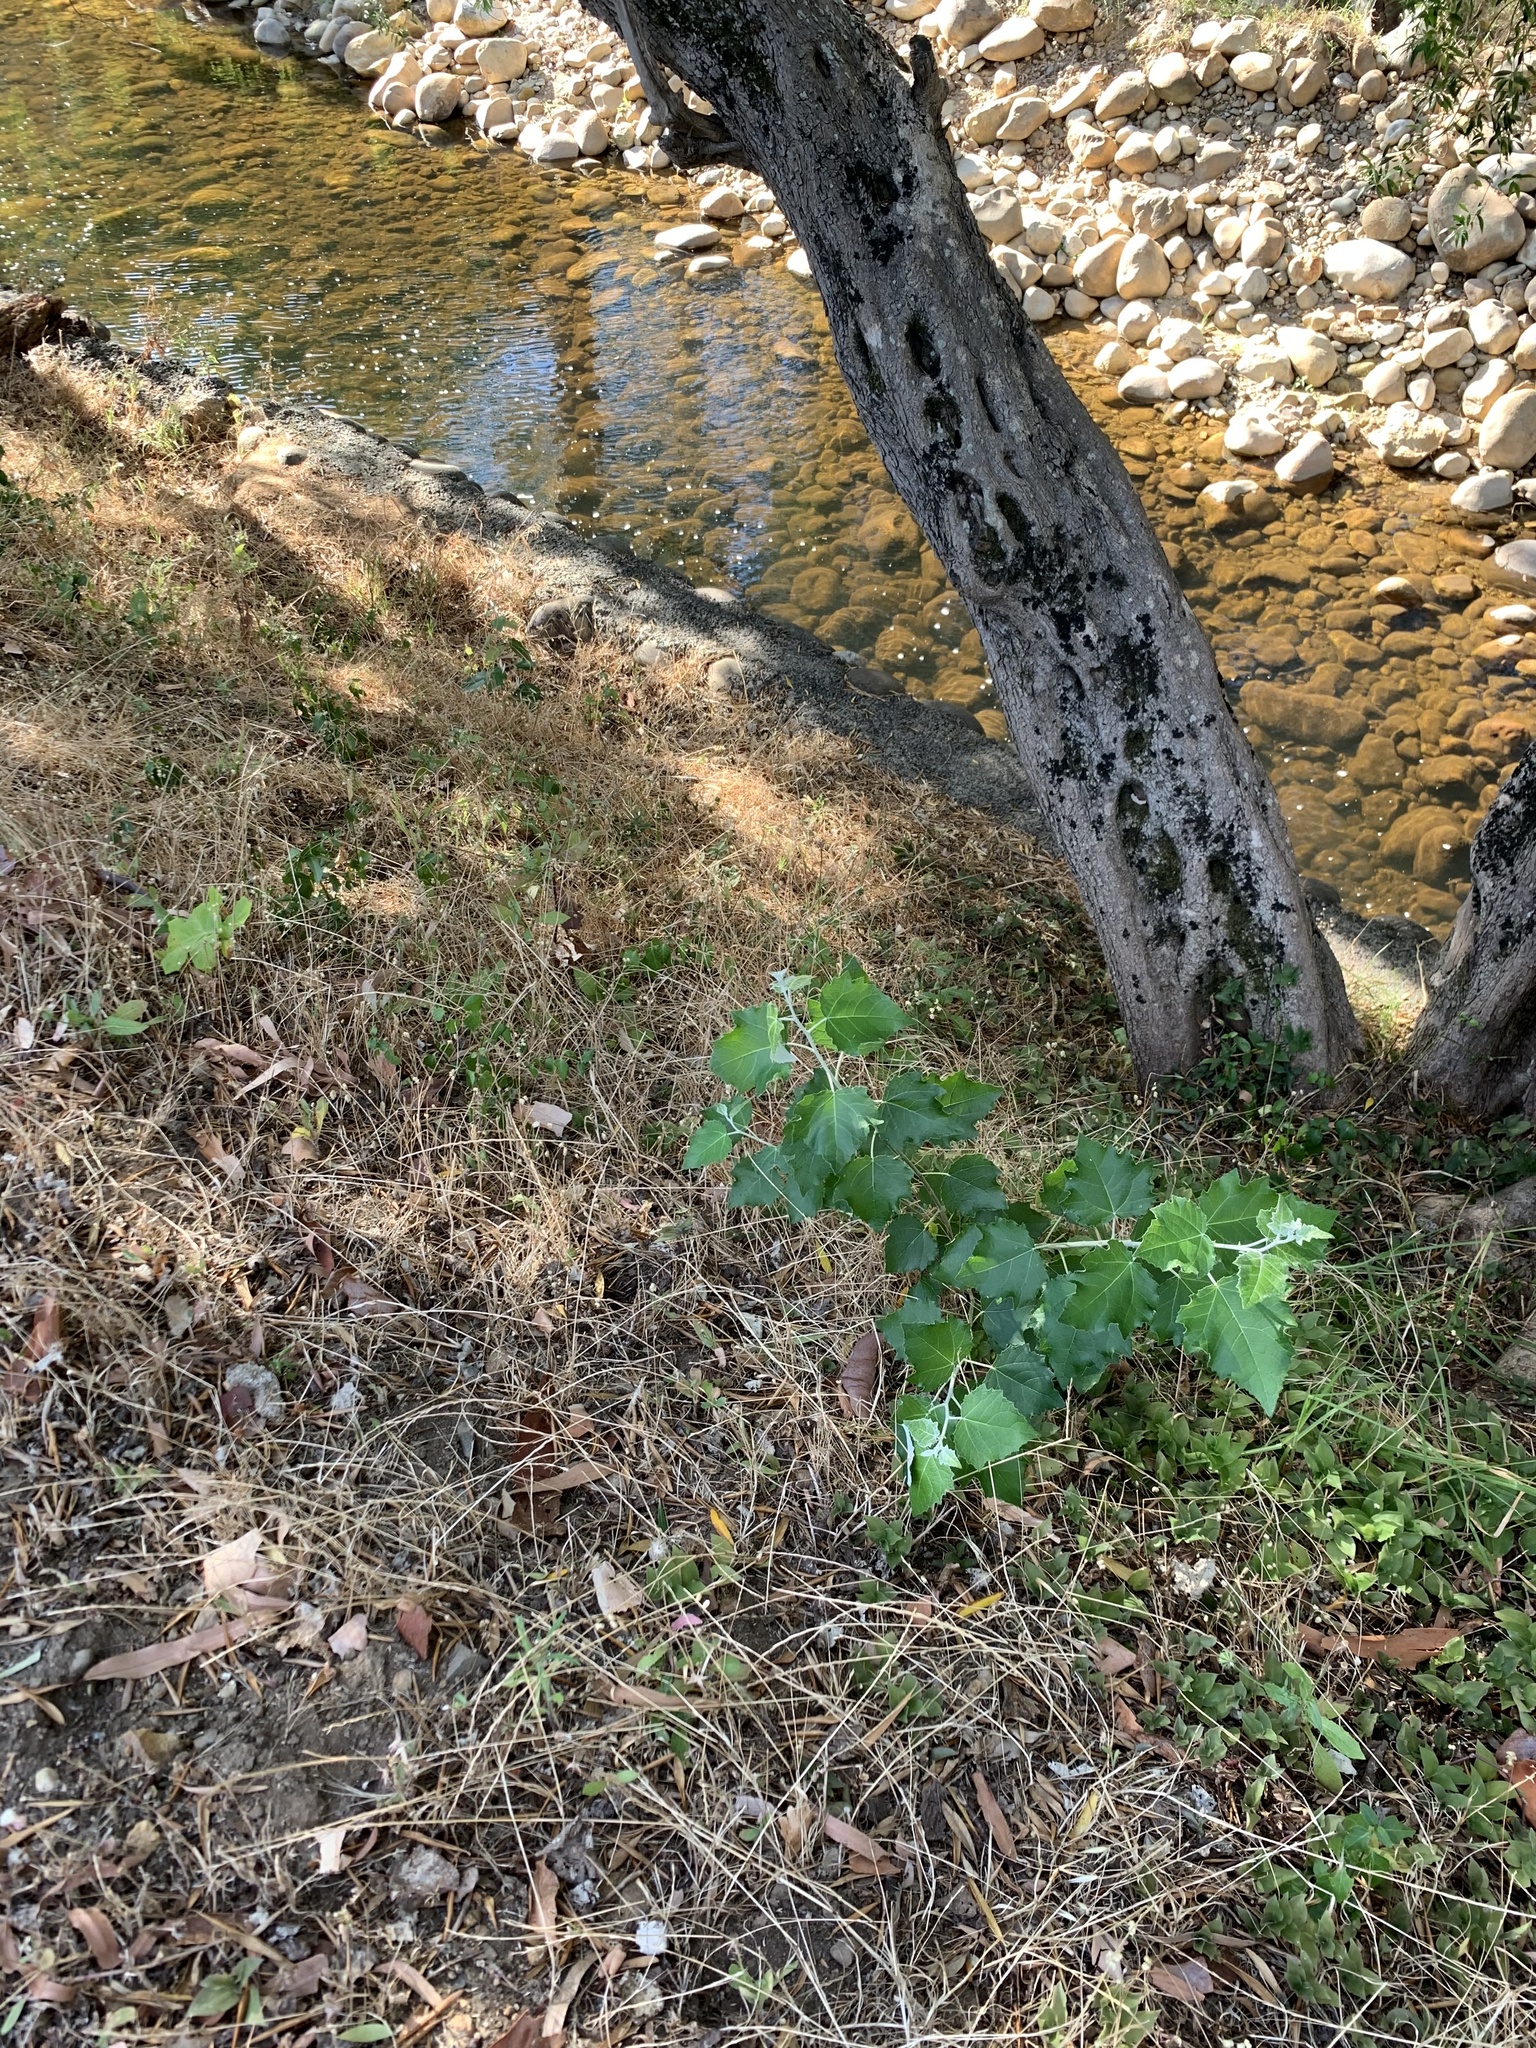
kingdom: Plantae
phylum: Tracheophyta
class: Magnoliopsida
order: Malpighiales
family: Salicaceae
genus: Populus
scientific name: Populus canescens
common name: Gray poplar
